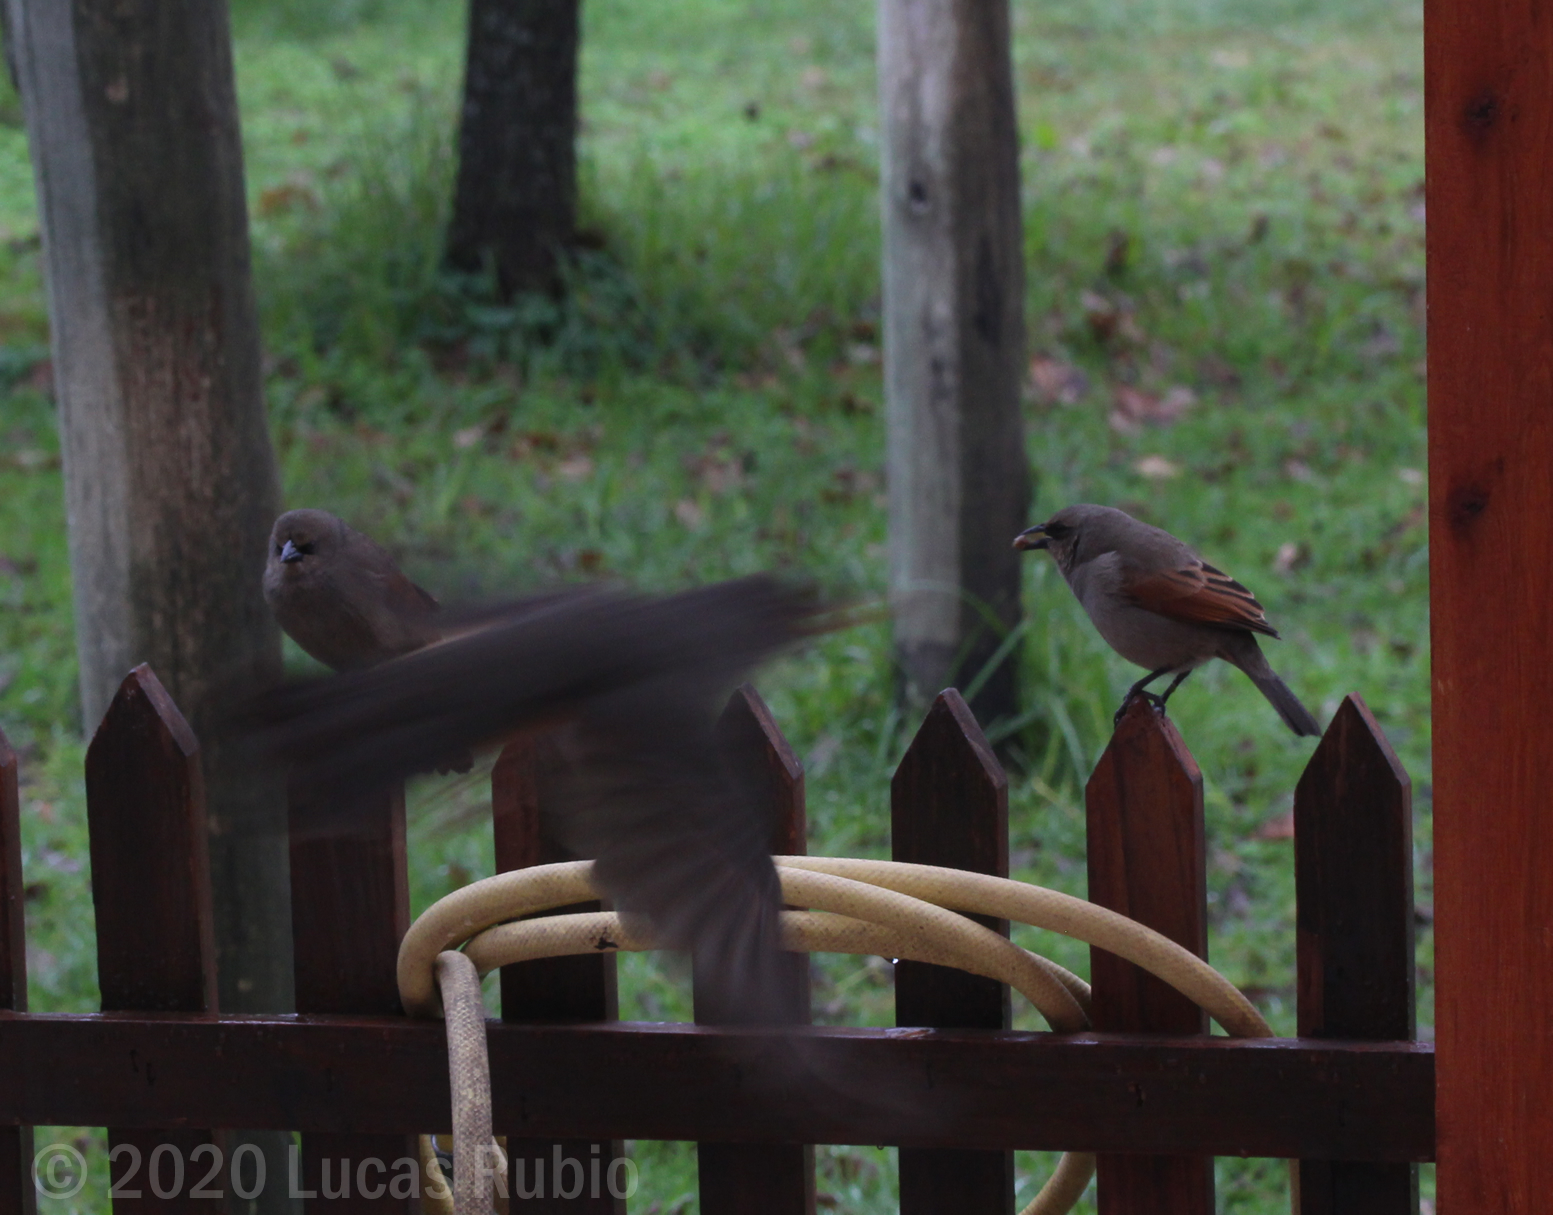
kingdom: Animalia
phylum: Chordata
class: Aves
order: Passeriformes
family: Icteridae
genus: Agelaioides
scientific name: Agelaioides badius
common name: Baywing
